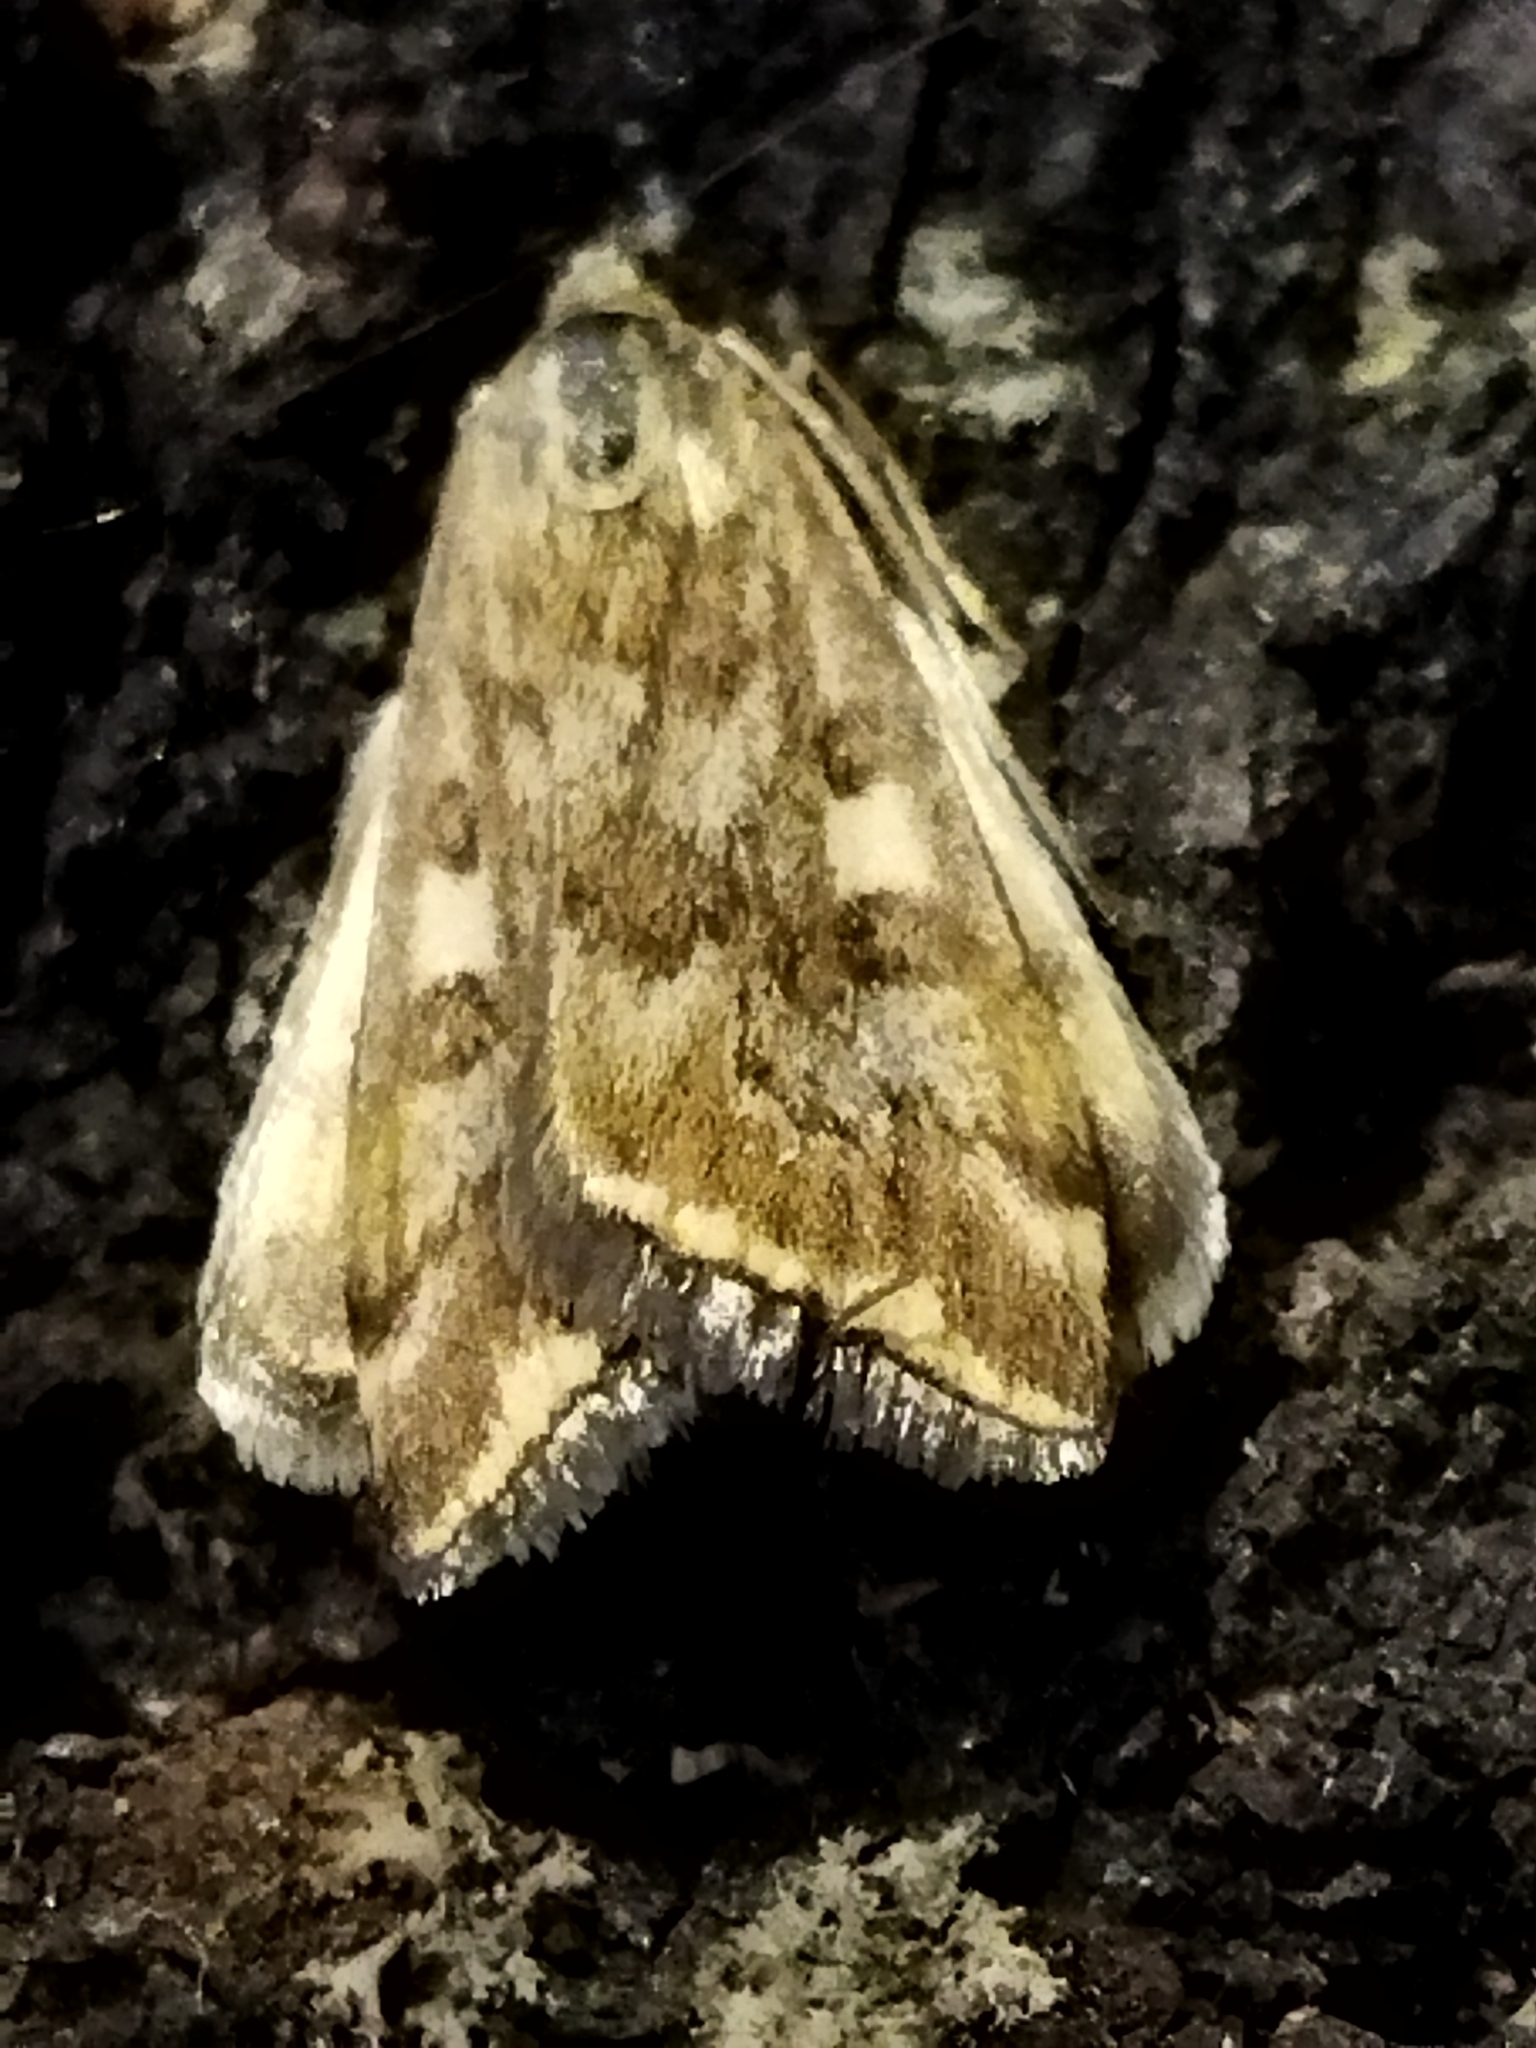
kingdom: Animalia
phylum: Arthropoda
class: Insecta
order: Lepidoptera
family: Crambidae
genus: Loxostege
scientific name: Loxostege sticticalis
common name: Crambid moth
